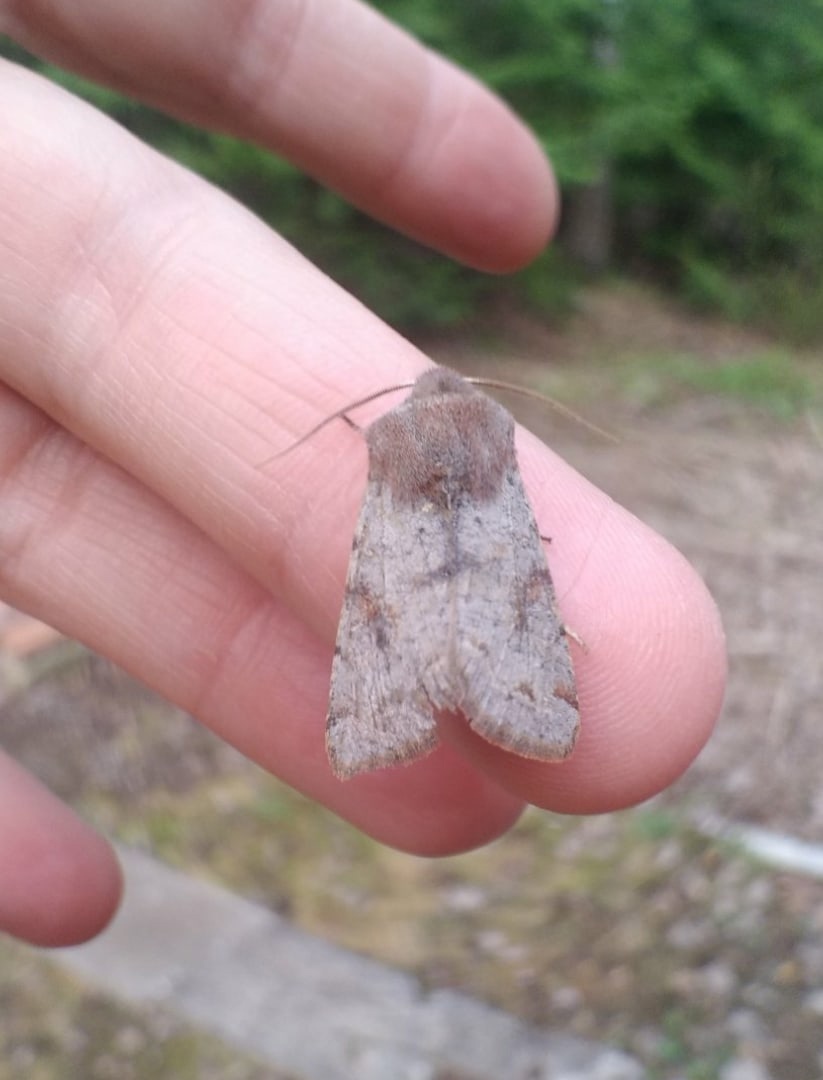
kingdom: Animalia
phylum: Arthropoda
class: Insecta
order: Lepidoptera
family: Noctuidae
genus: Orthosia
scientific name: Orthosia incerta
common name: Clouded drab
